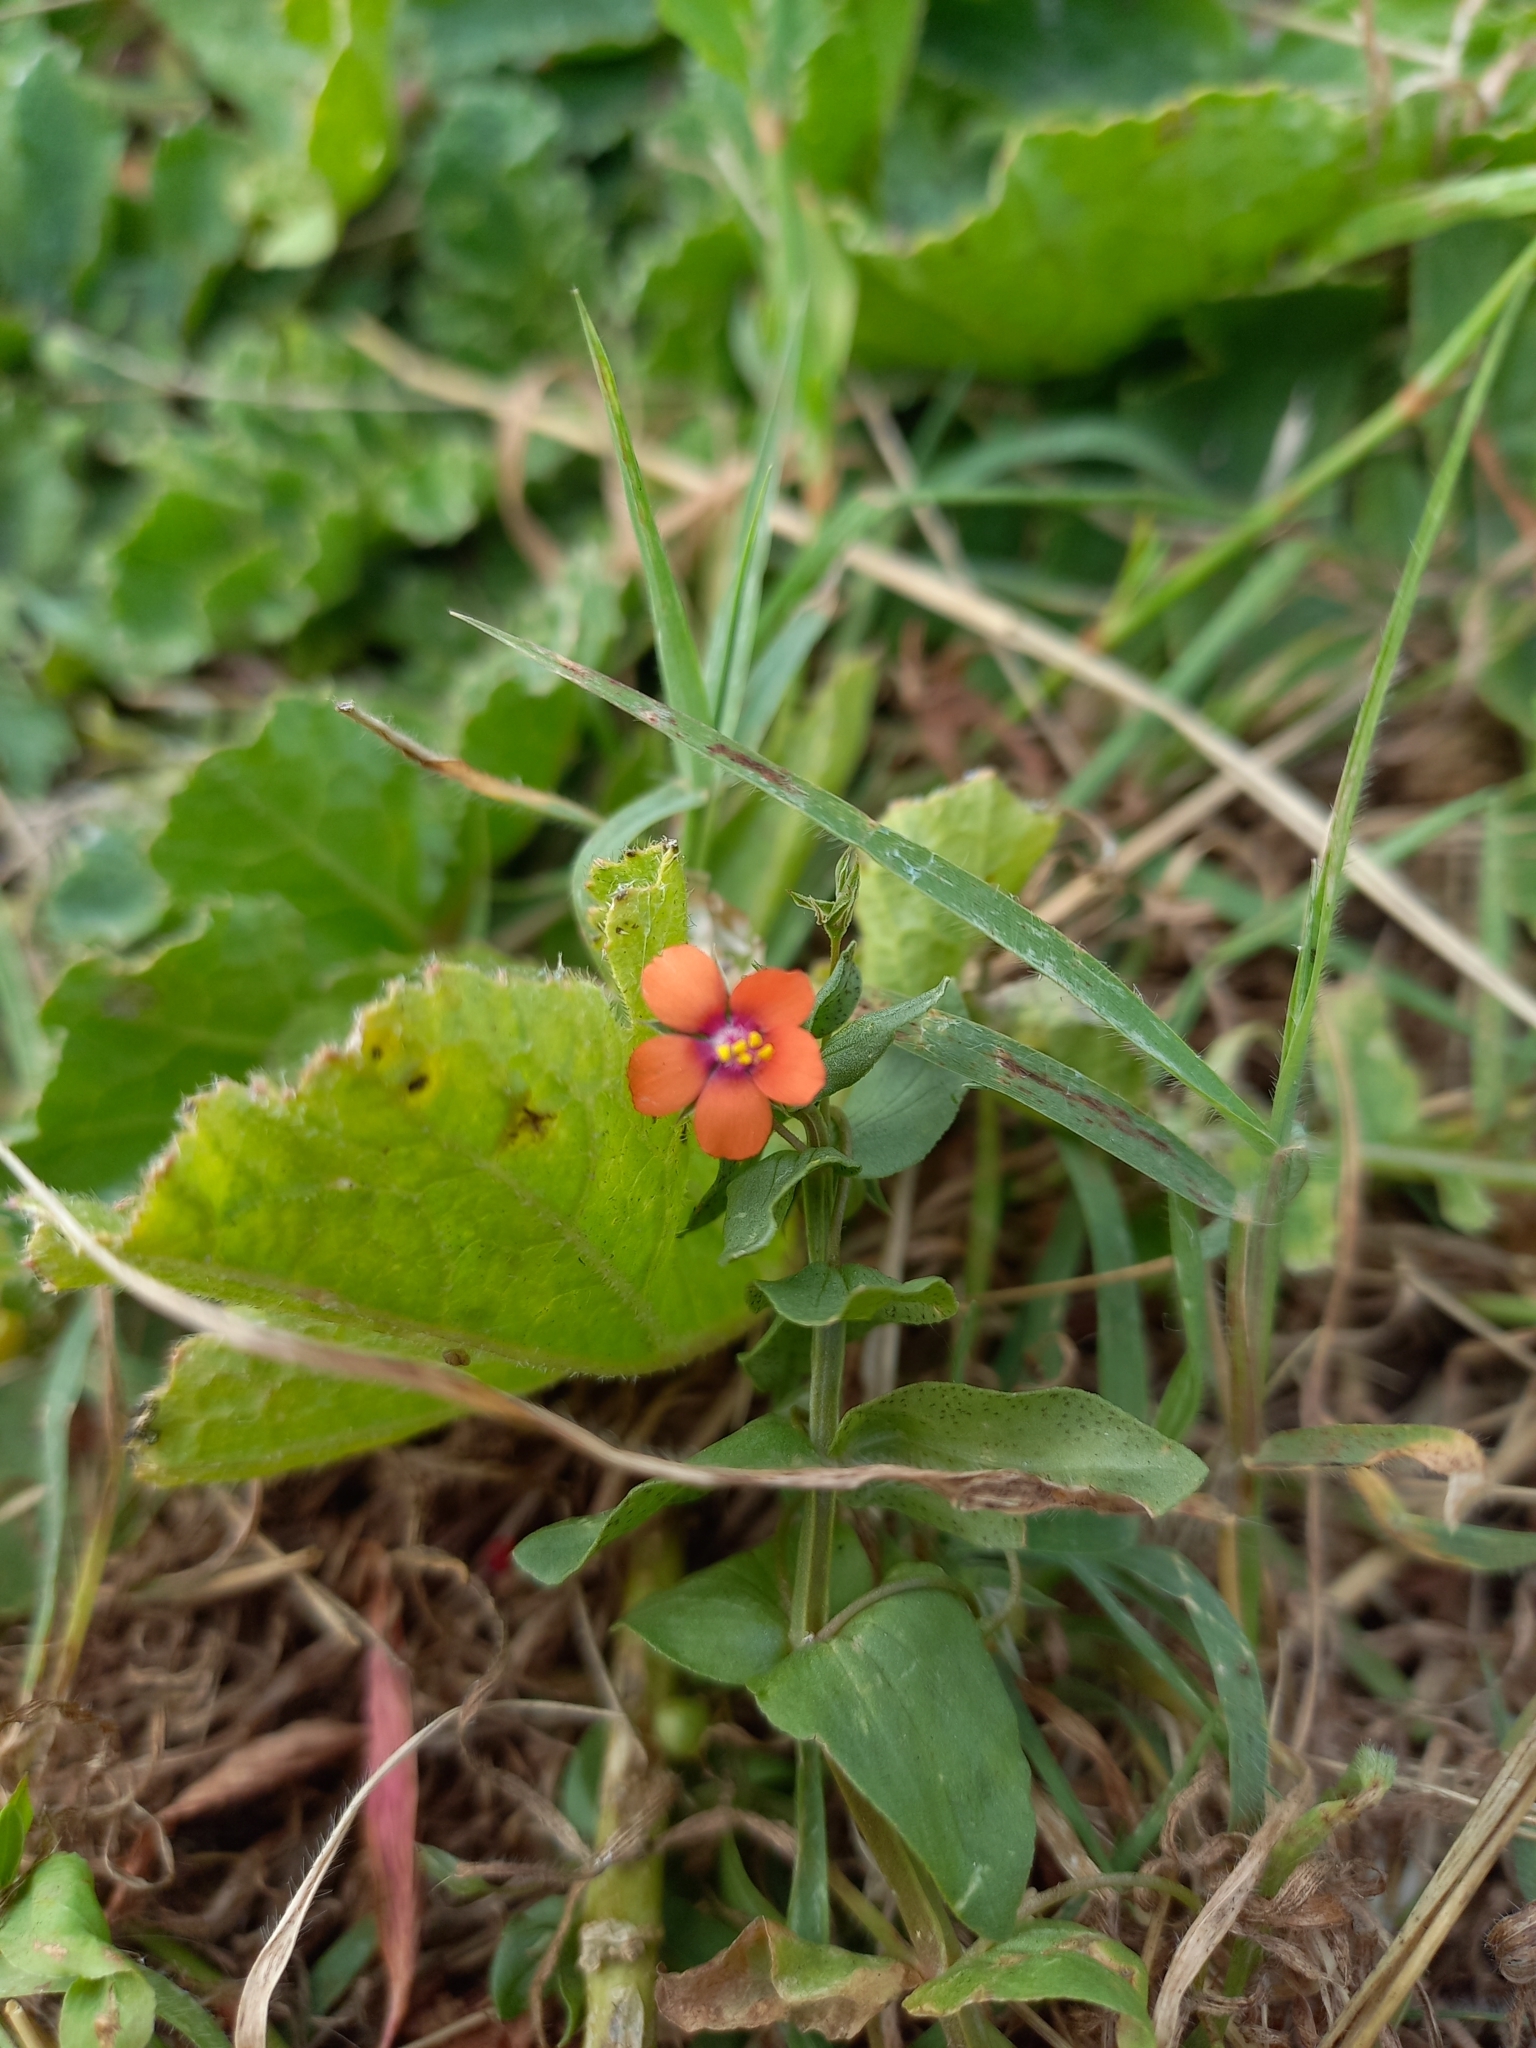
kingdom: Plantae
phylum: Tracheophyta
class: Magnoliopsida
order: Ericales
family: Primulaceae
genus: Lysimachia
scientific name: Lysimachia arvensis
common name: Scarlet pimpernel
